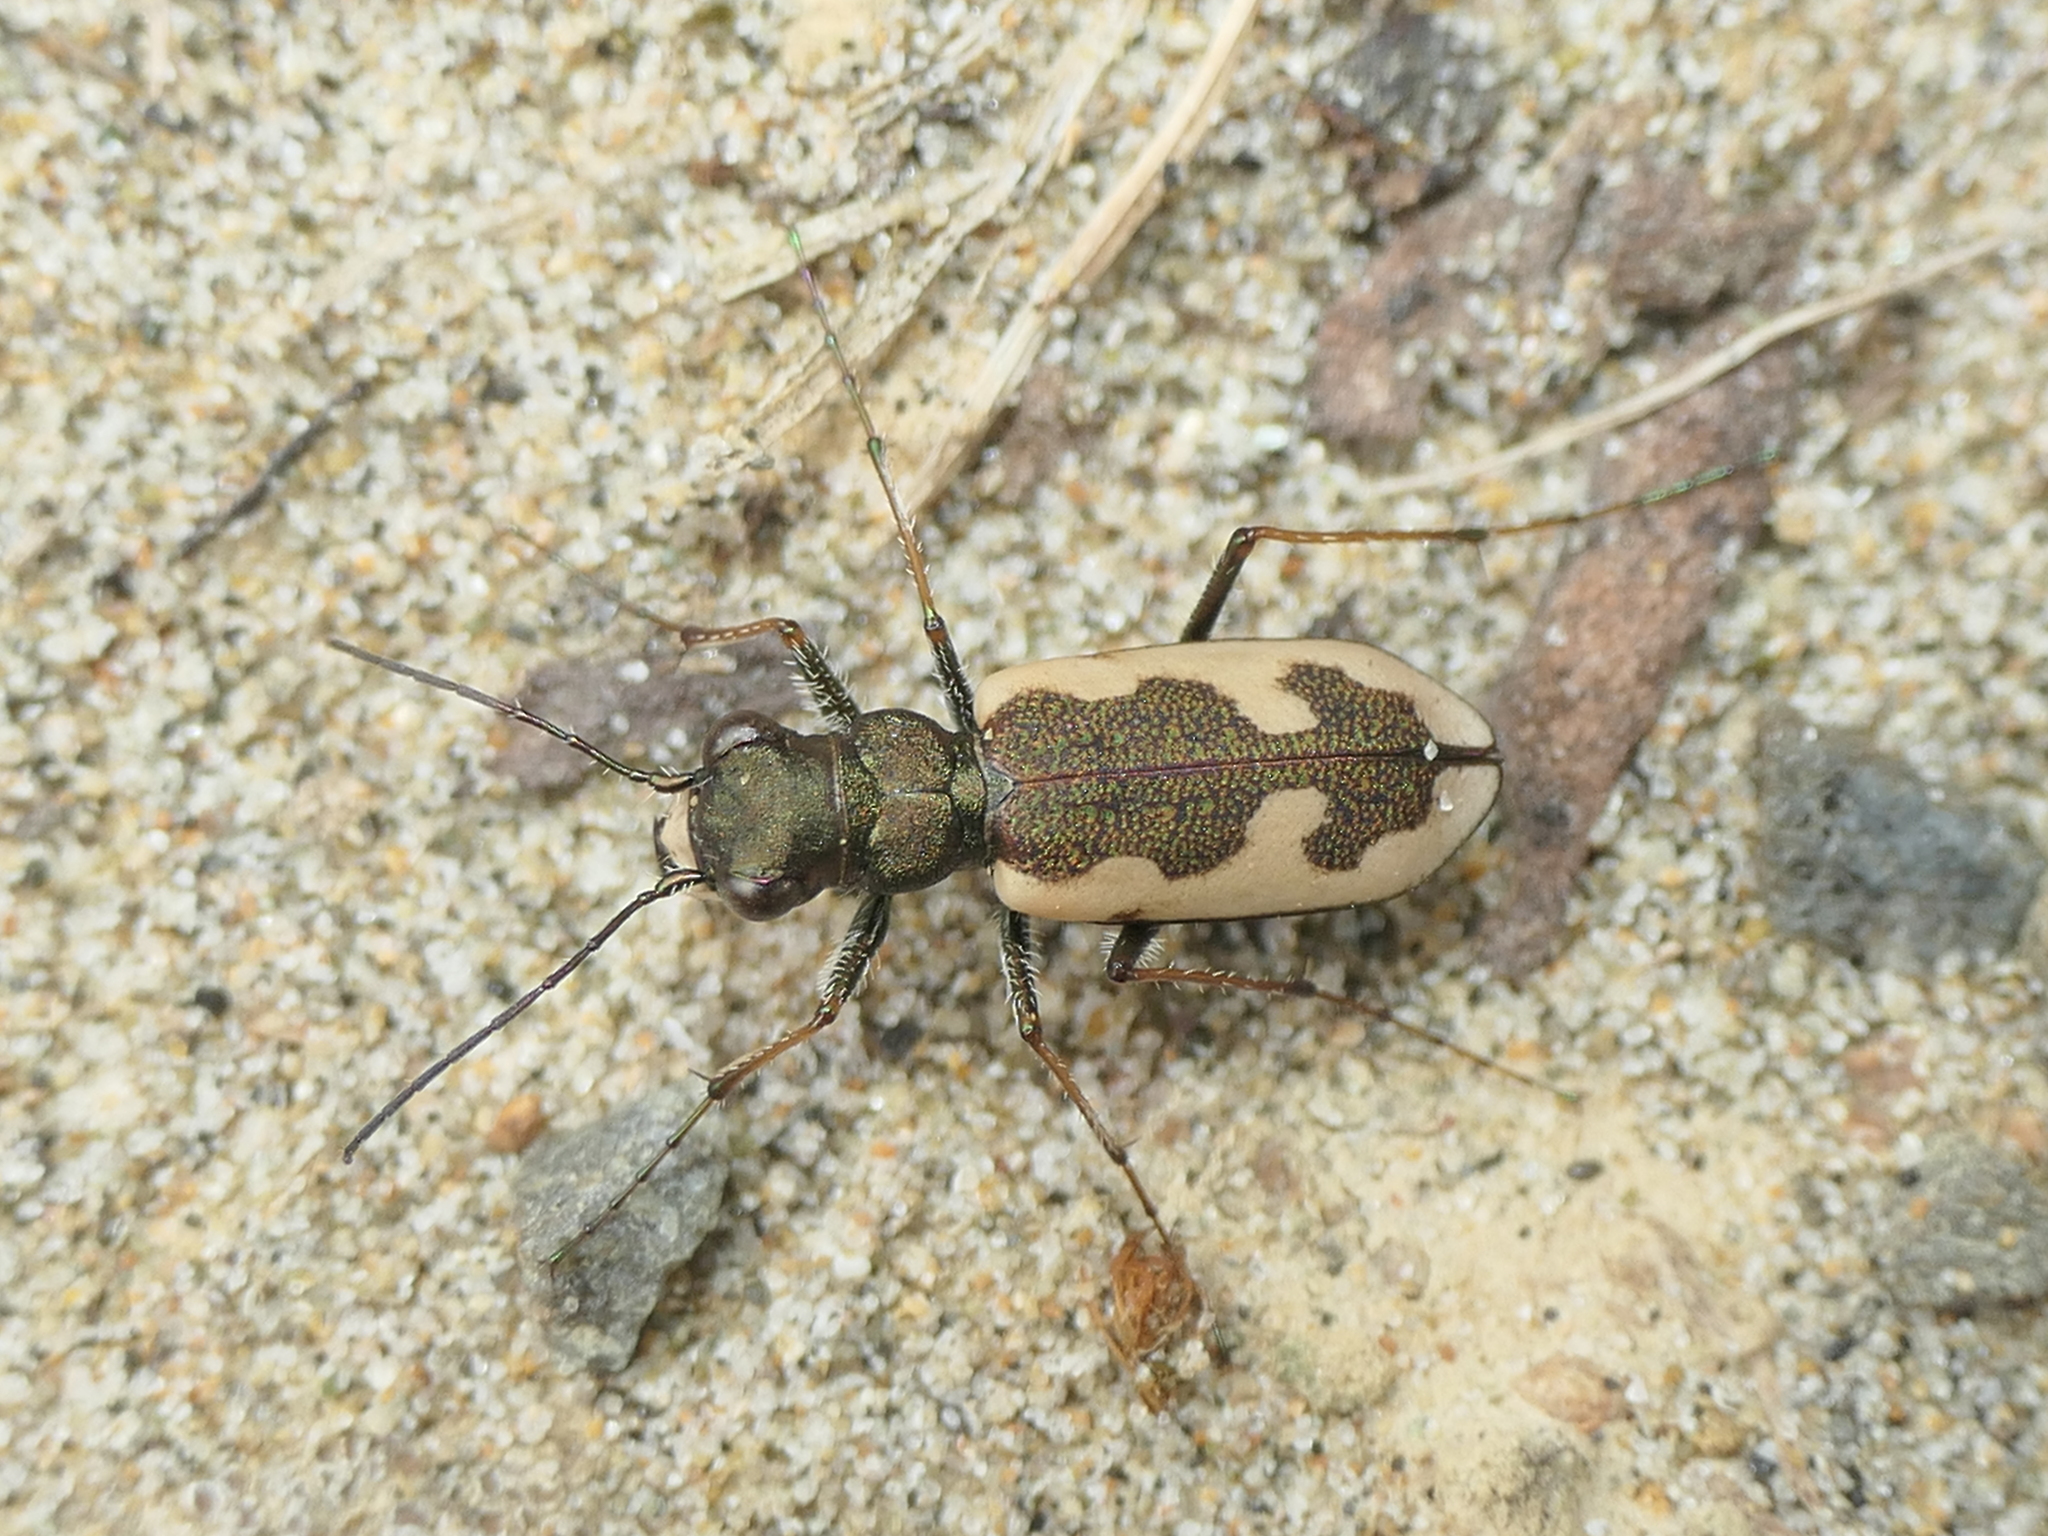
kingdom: Animalia
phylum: Arthropoda
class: Insecta
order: Coleoptera
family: Carabidae
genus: Neocicindela
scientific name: Neocicindela latecincta
